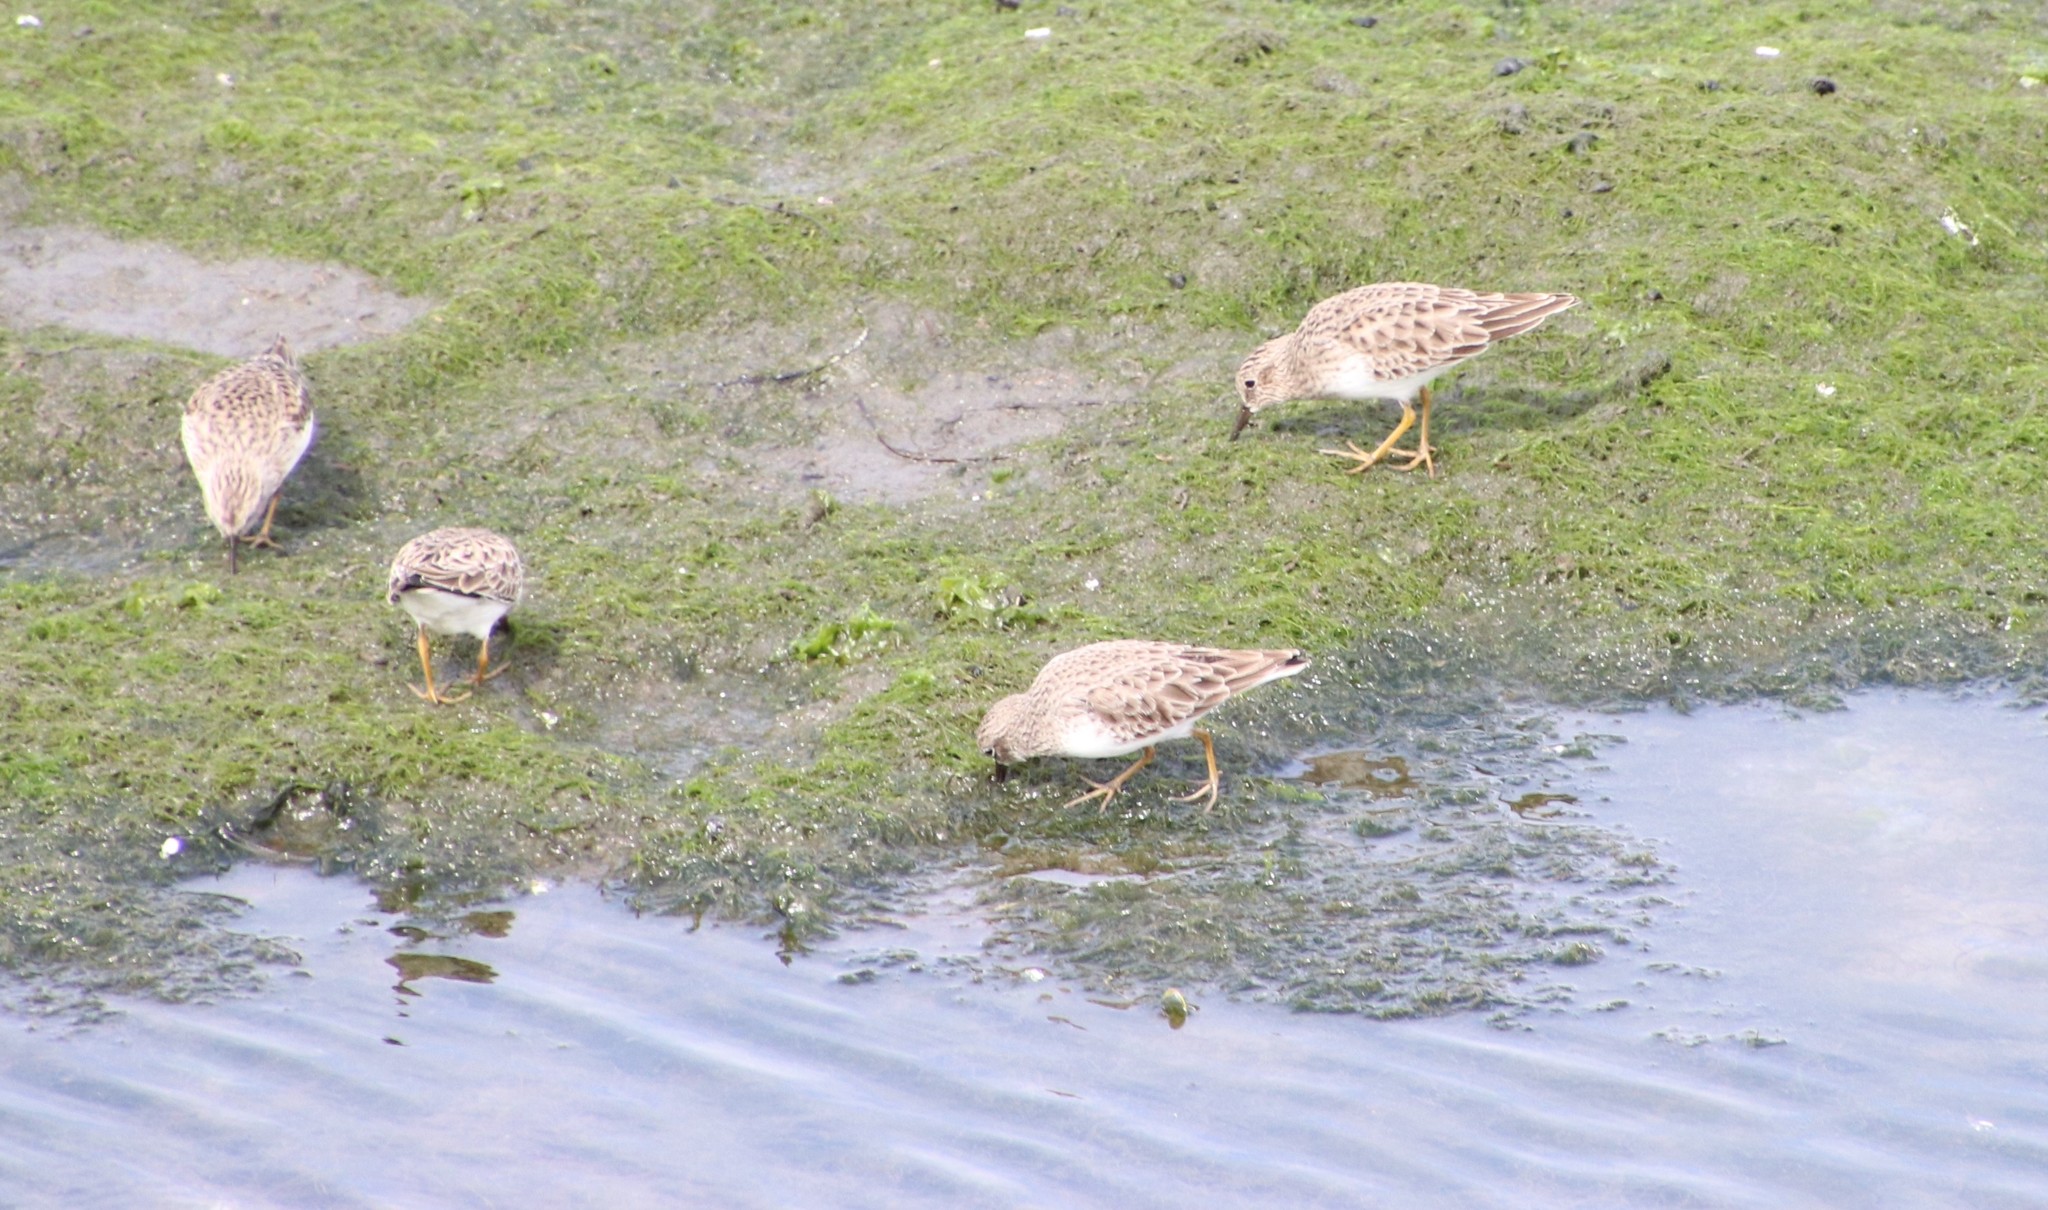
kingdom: Animalia
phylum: Chordata
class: Aves
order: Charadriiformes
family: Scolopacidae
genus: Calidris
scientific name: Calidris minutilla
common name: Least sandpiper
